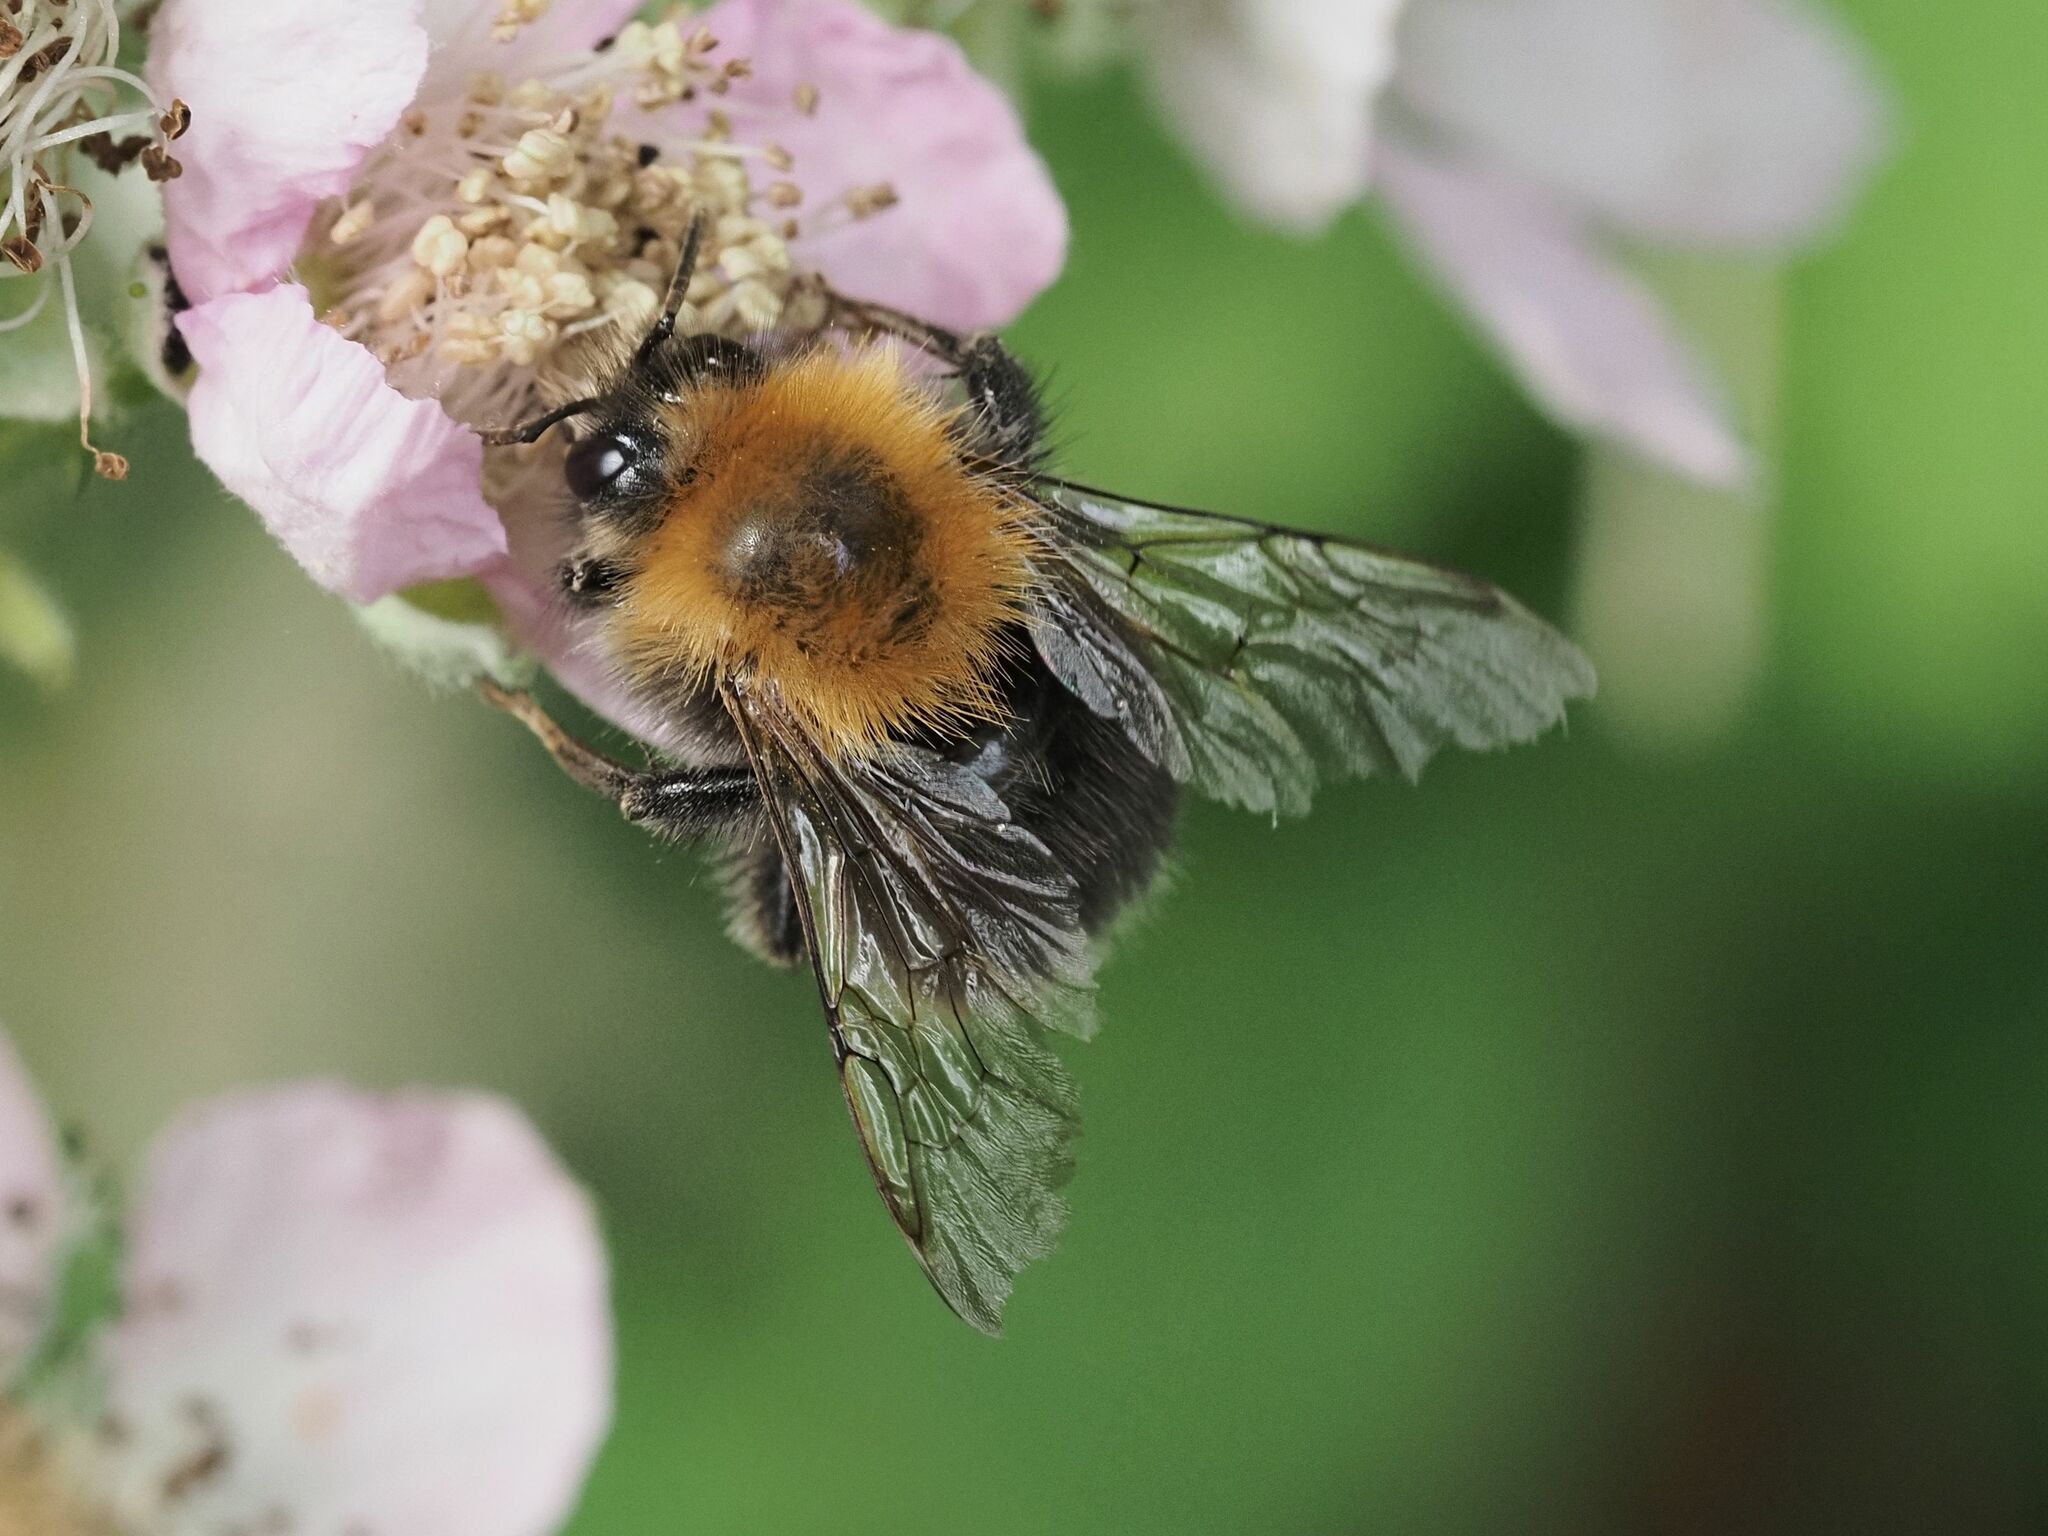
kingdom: Animalia
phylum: Arthropoda
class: Insecta
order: Hymenoptera
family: Apidae
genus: Bombus
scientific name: Bombus hypnorum
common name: New garden bumblebee
